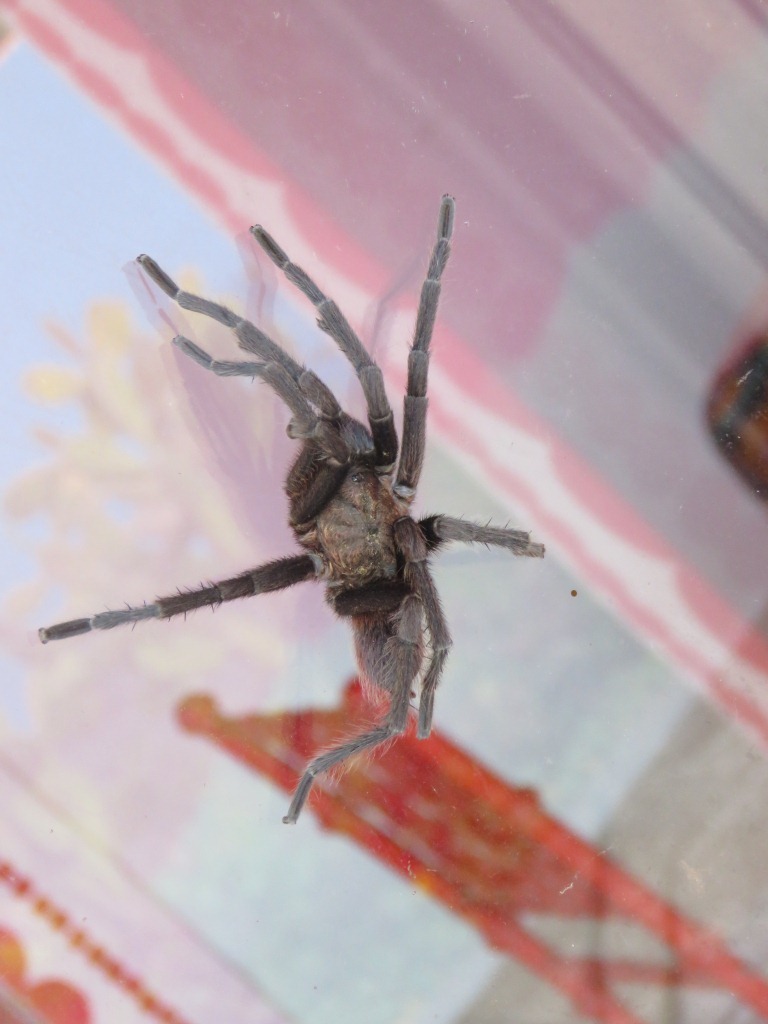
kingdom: Animalia
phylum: Arthropoda
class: Arachnida
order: Araneae
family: Theraphosidae
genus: Aphonopelma
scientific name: Aphonopelma crinirufum
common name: Tarantula spiders
